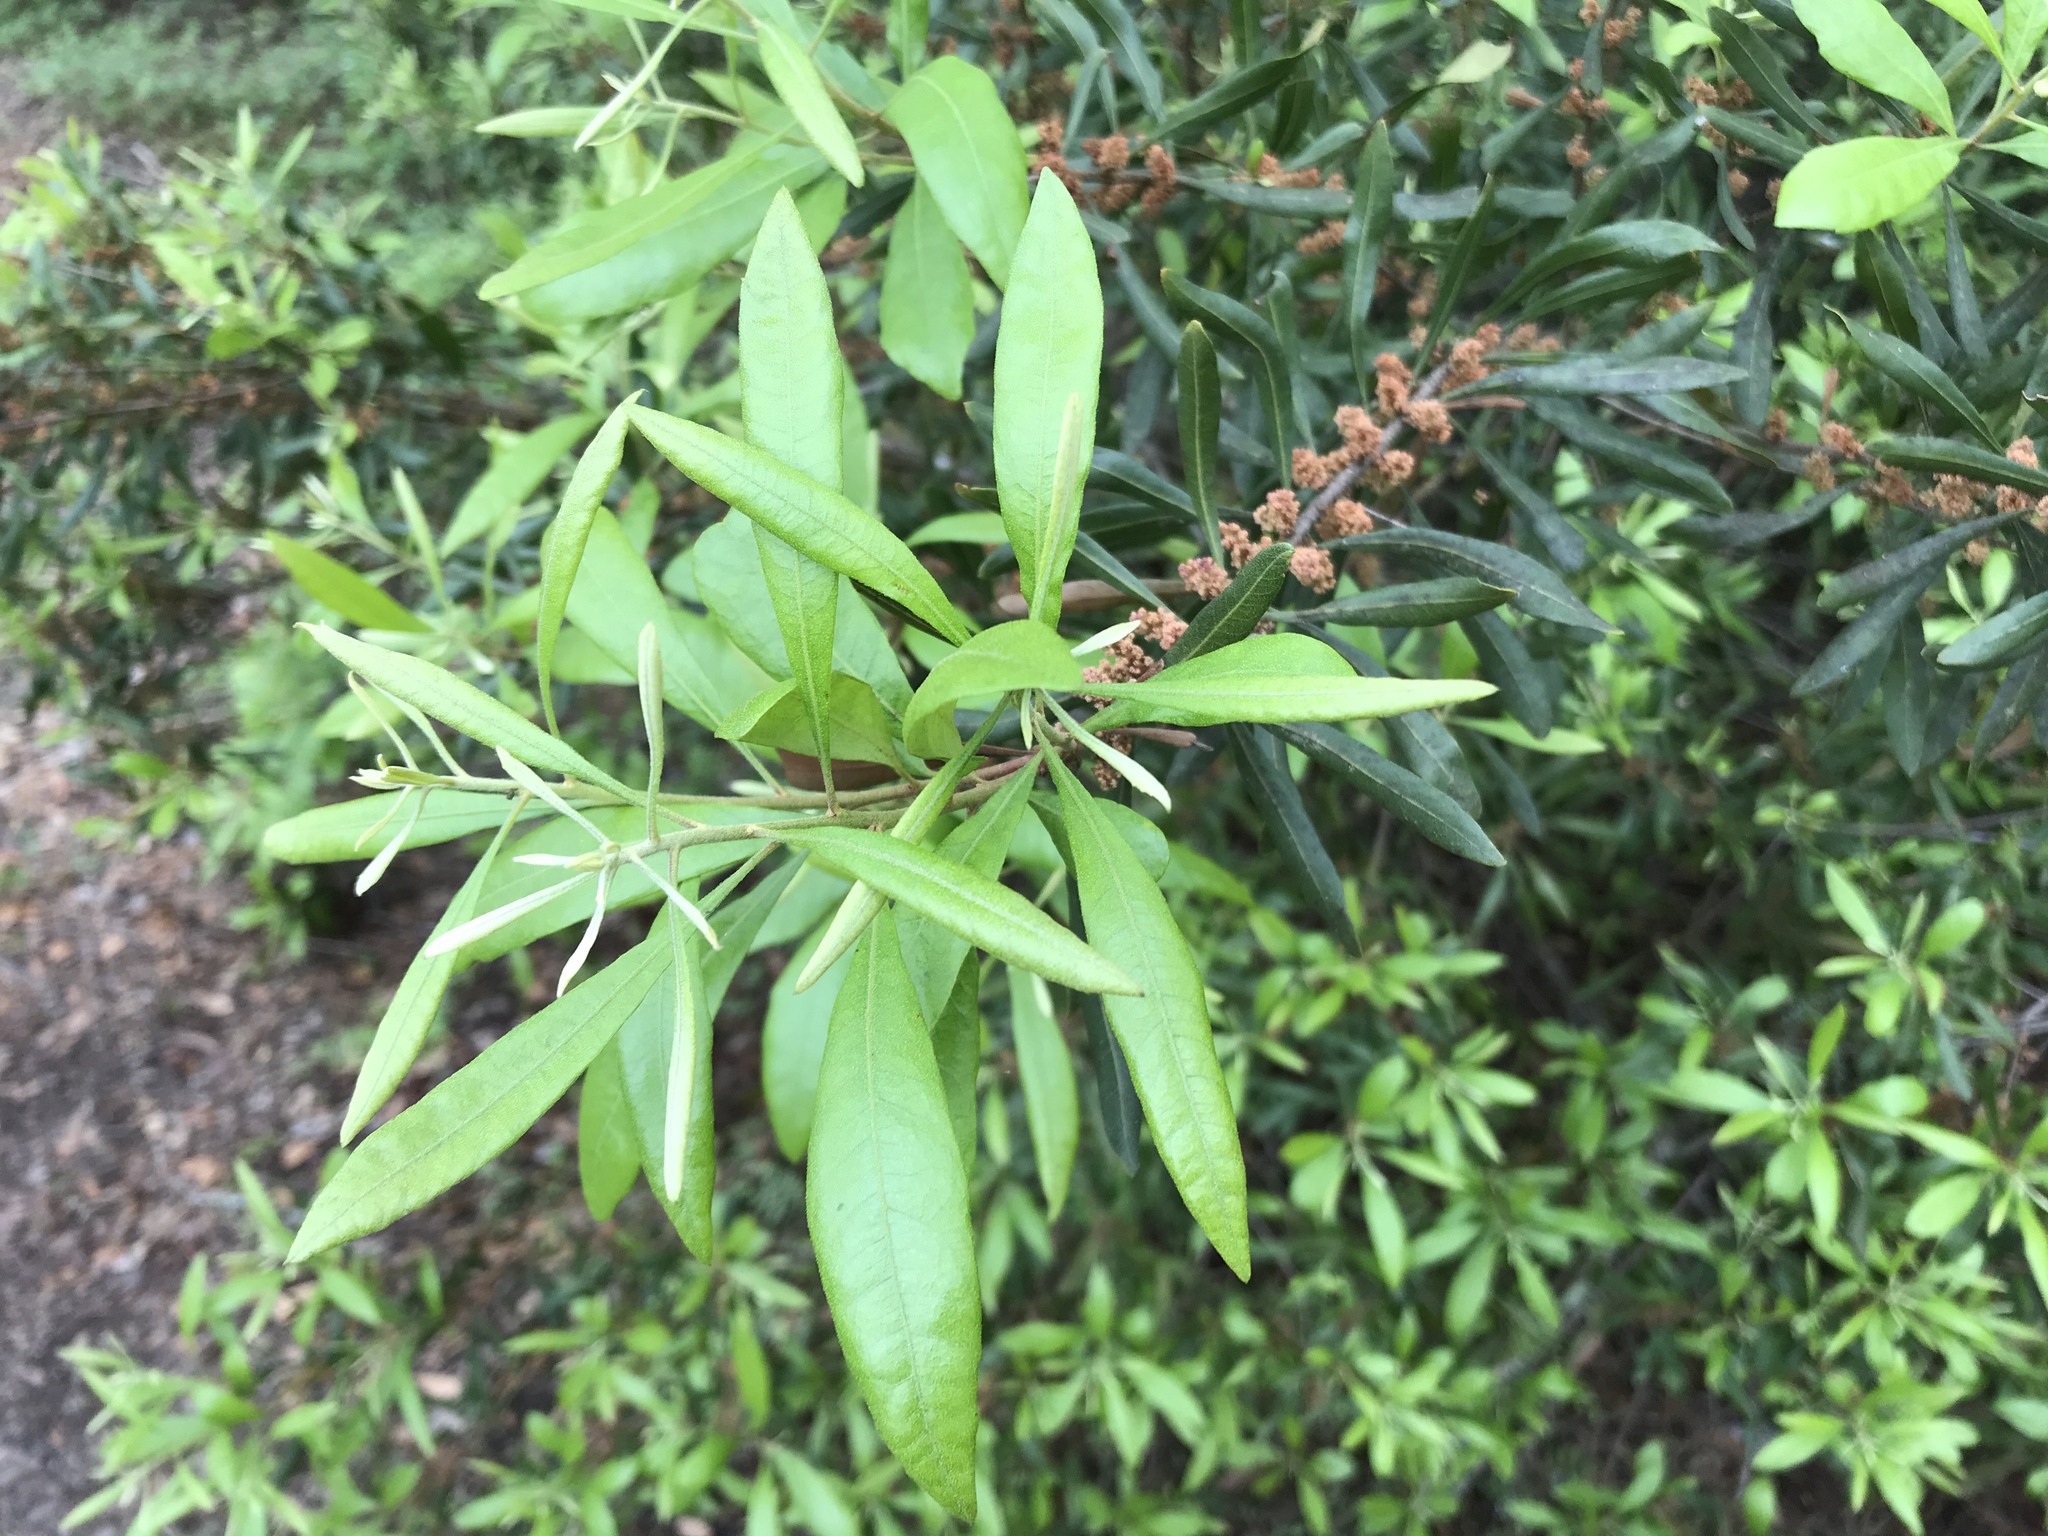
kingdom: Plantae
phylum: Tracheophyta
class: Magnoliopsida
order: Fagales
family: Myricaceae
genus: Morella
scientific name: Morella cerifera
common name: Wax myrtle
